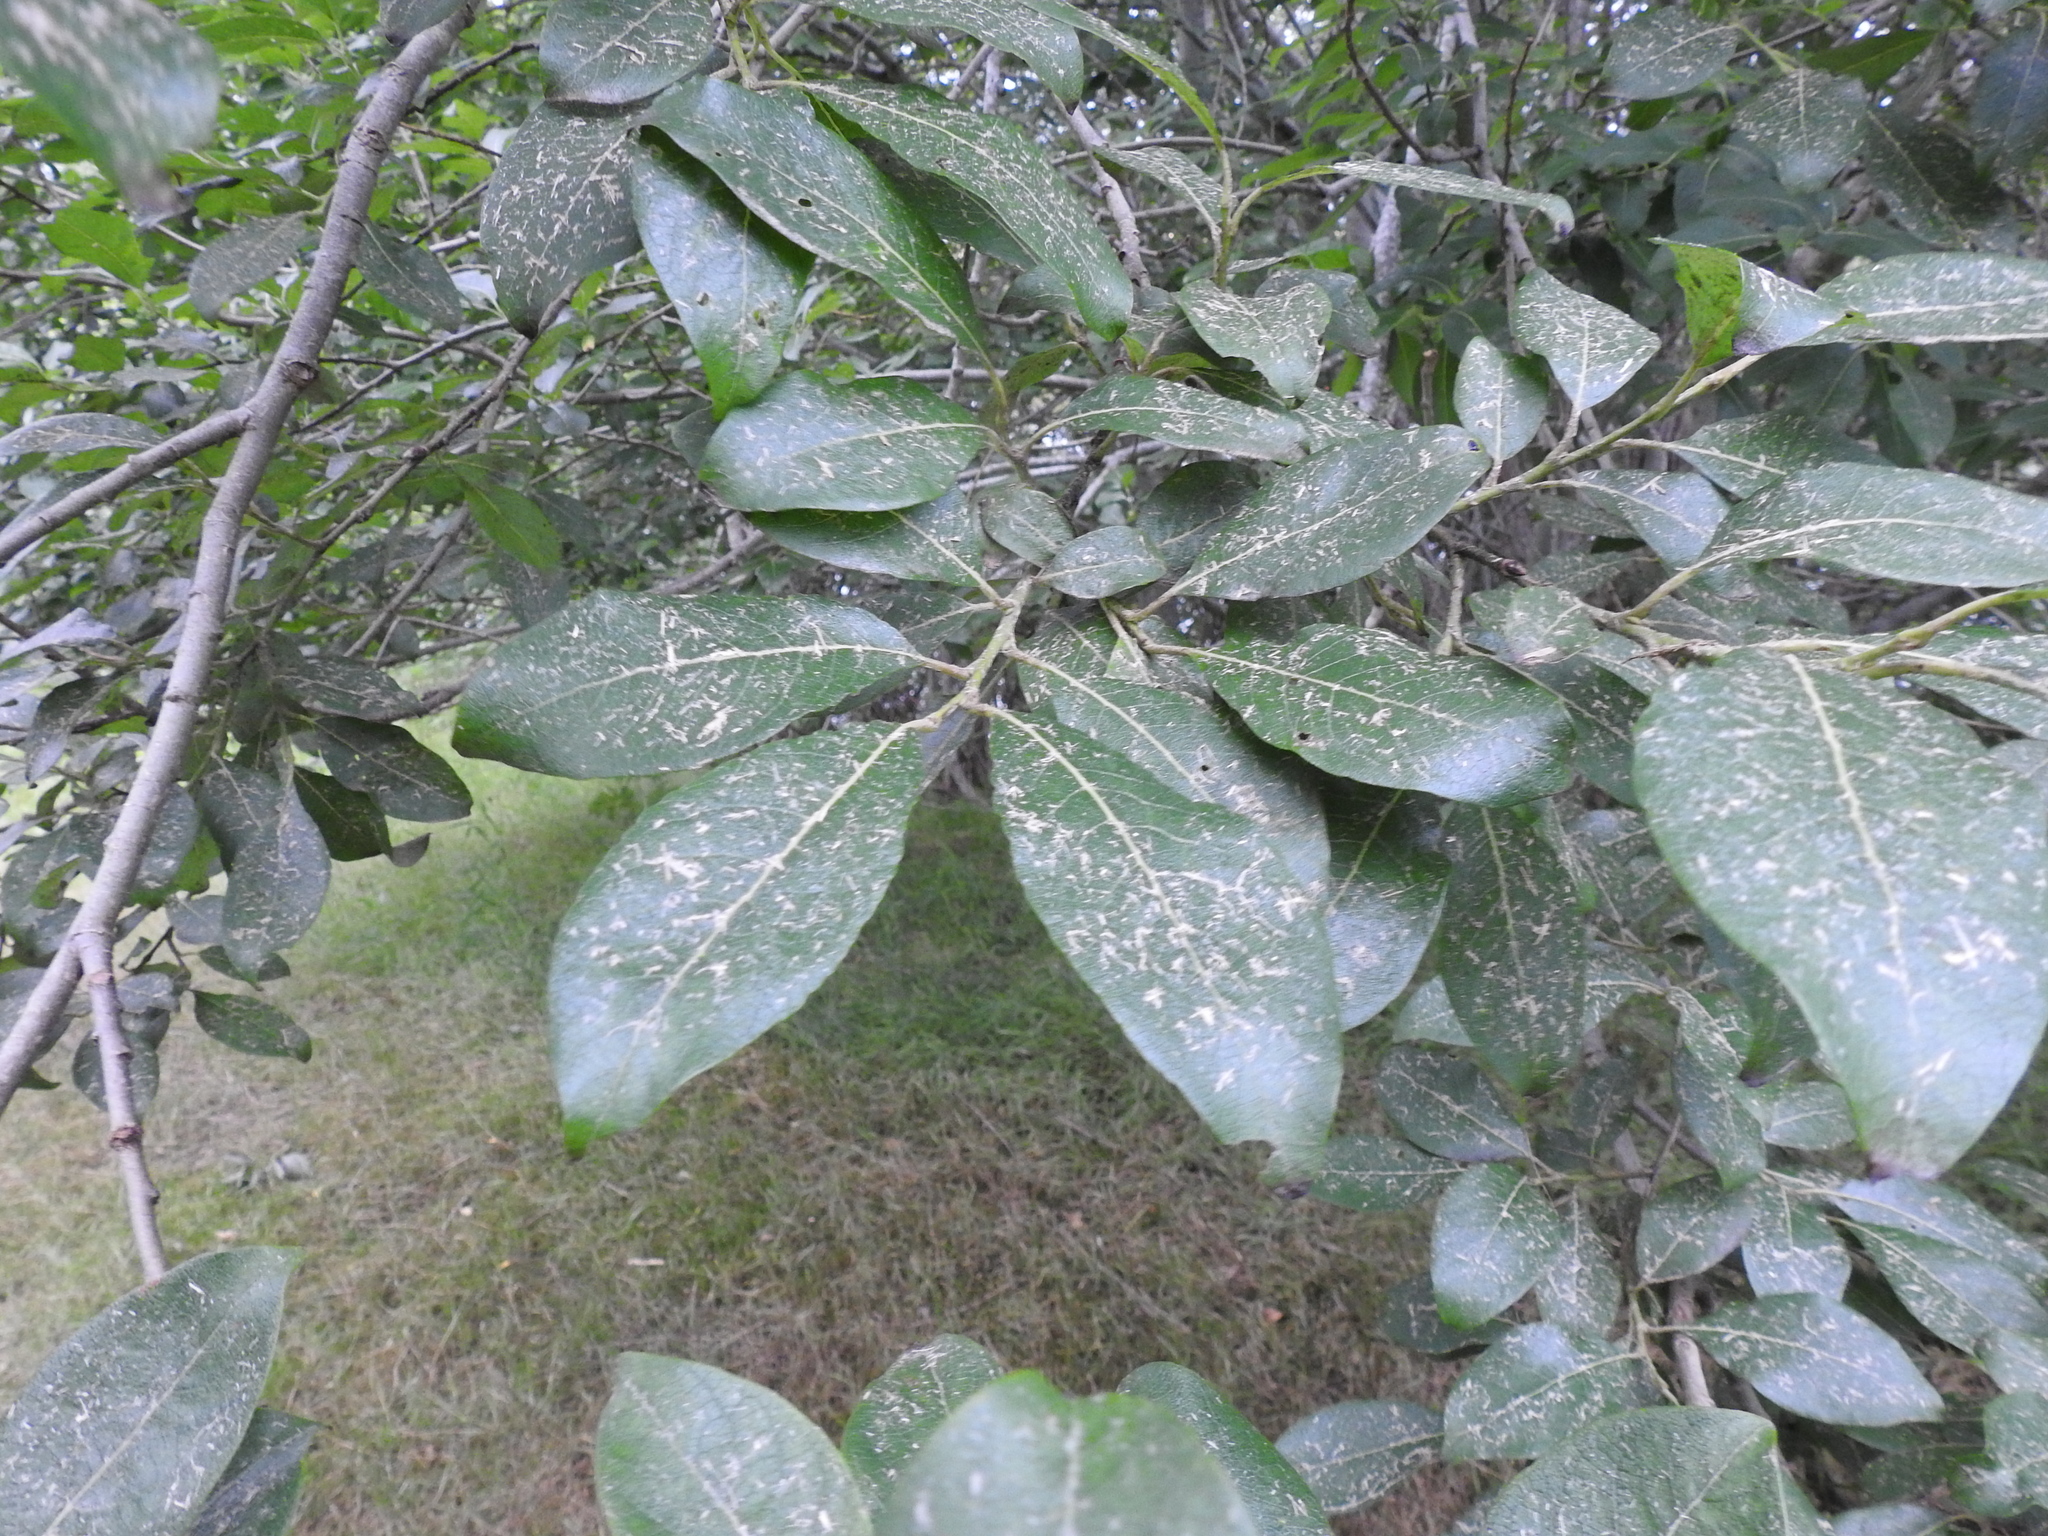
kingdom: Fungi
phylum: Ascomycota
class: Leotiomycetes
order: Rhytismatales
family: Rhytismataceae
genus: Rhytisma
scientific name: Rhytisma salicinum
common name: Willow tarspot
